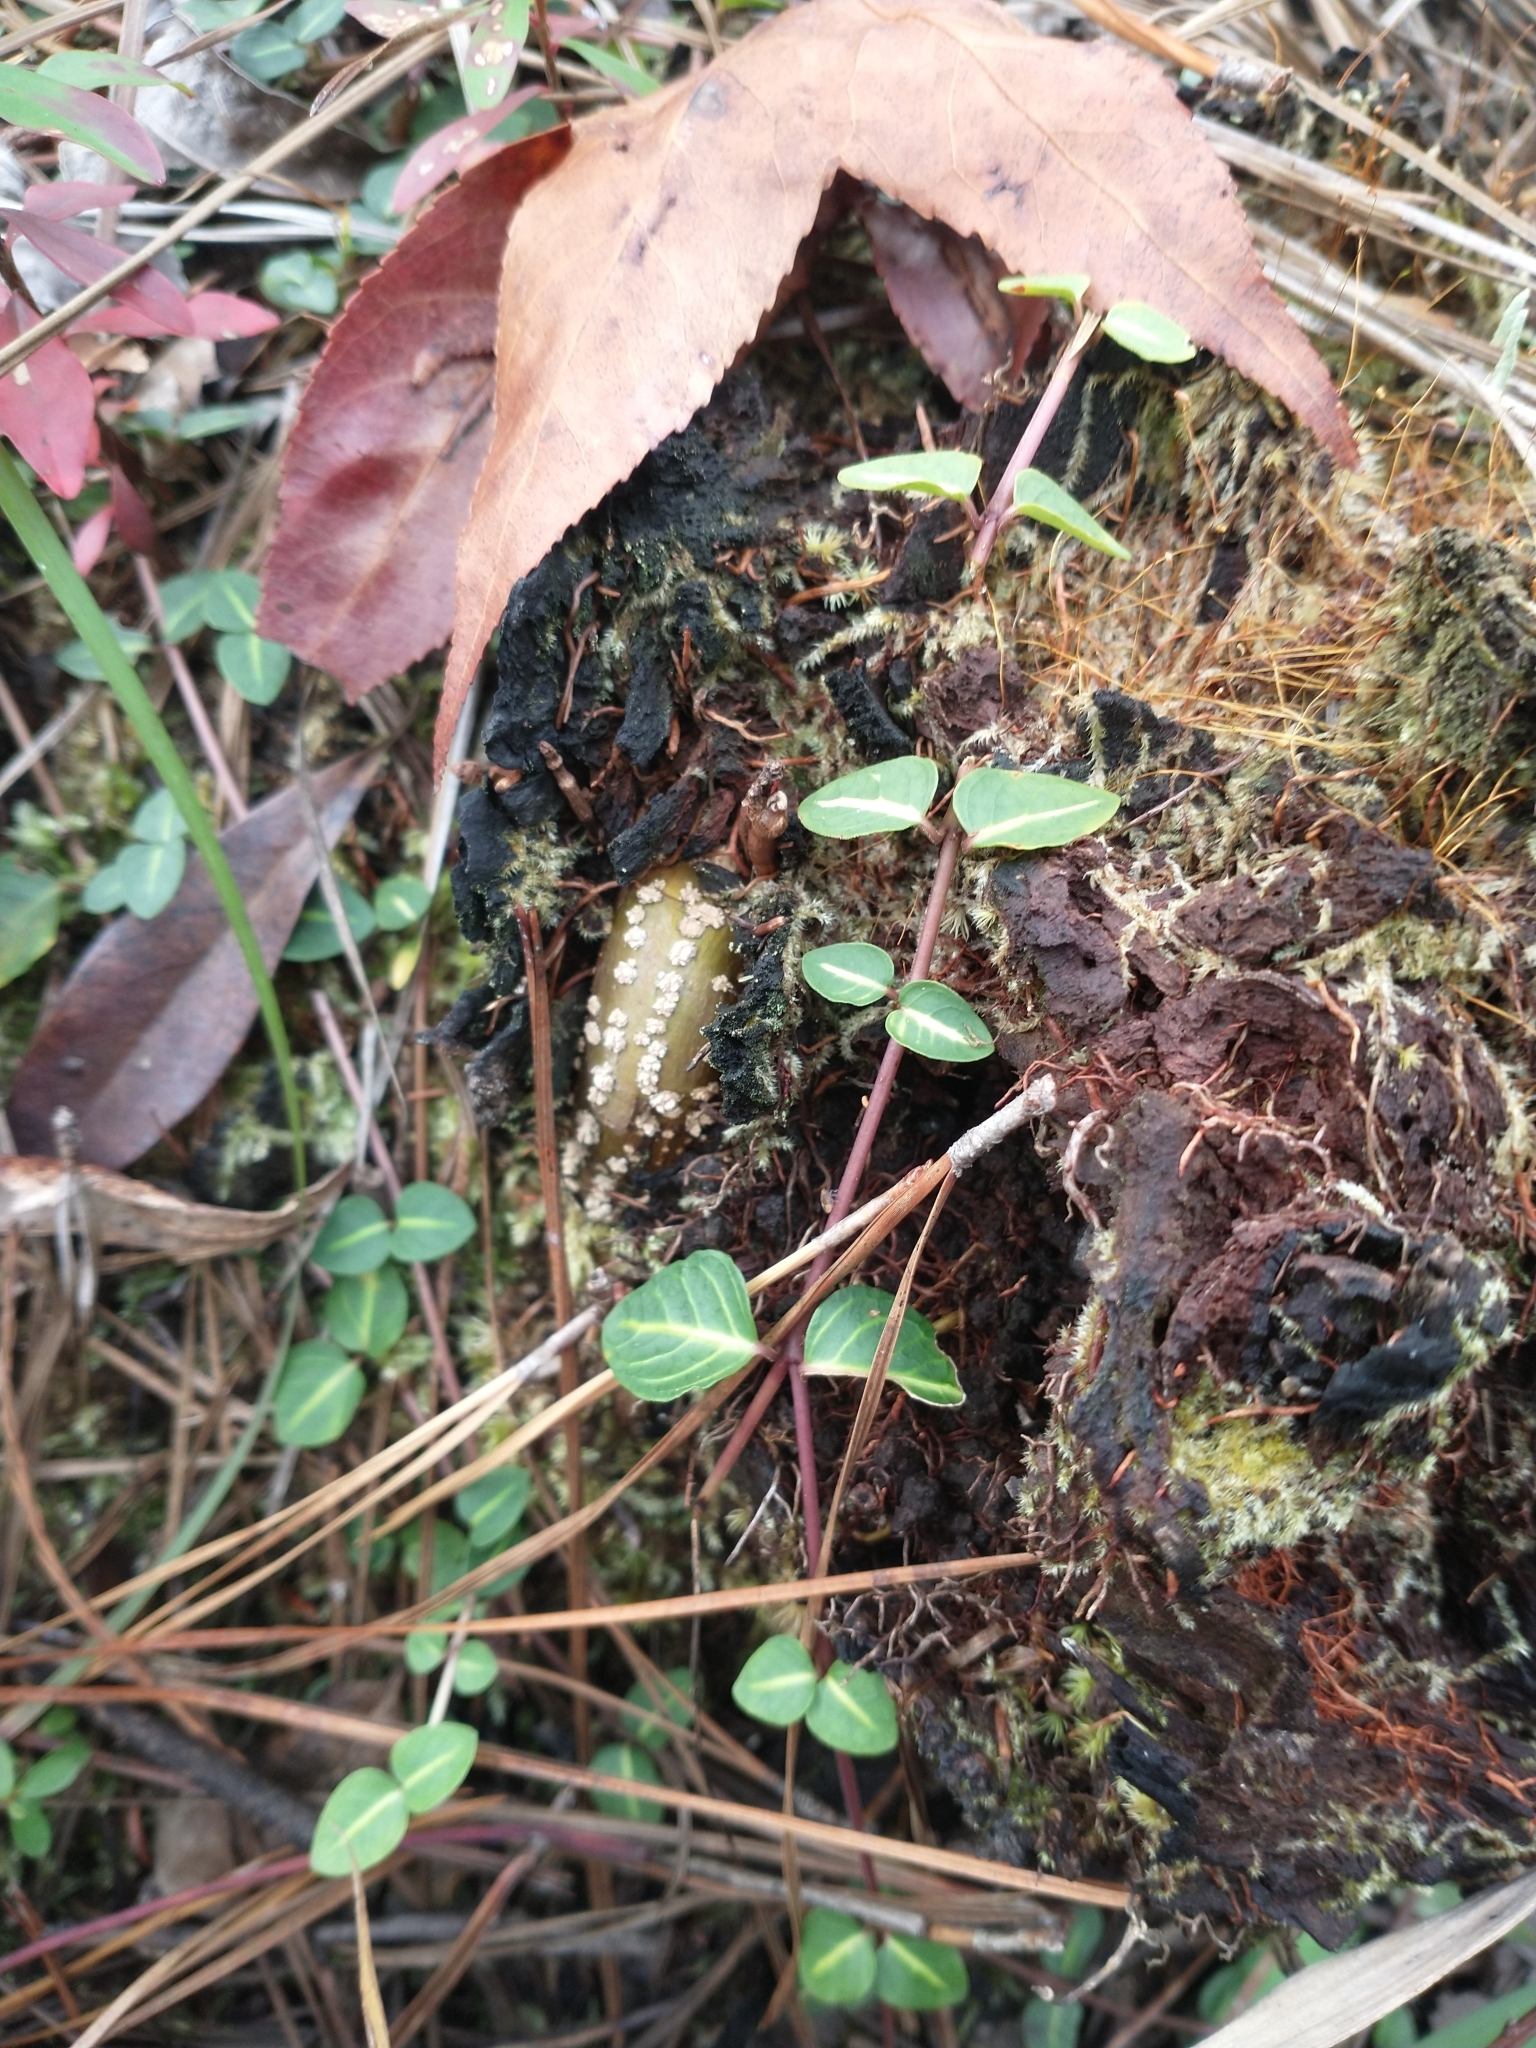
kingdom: Plantae
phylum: Tracheophyta
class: Magnoliopsida
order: Gentianales
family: Rubiaceae
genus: Mitchella
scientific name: Mitchella repens
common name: Partridge-berry
